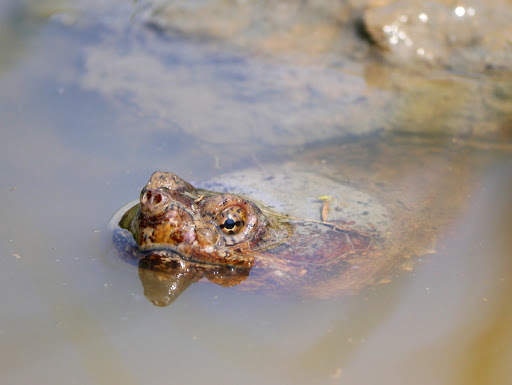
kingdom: Animalia
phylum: Chordata
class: Testudines
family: Chelydridae
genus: Chelydra
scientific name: Chelydra serpentina
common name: Common snapping turtle
